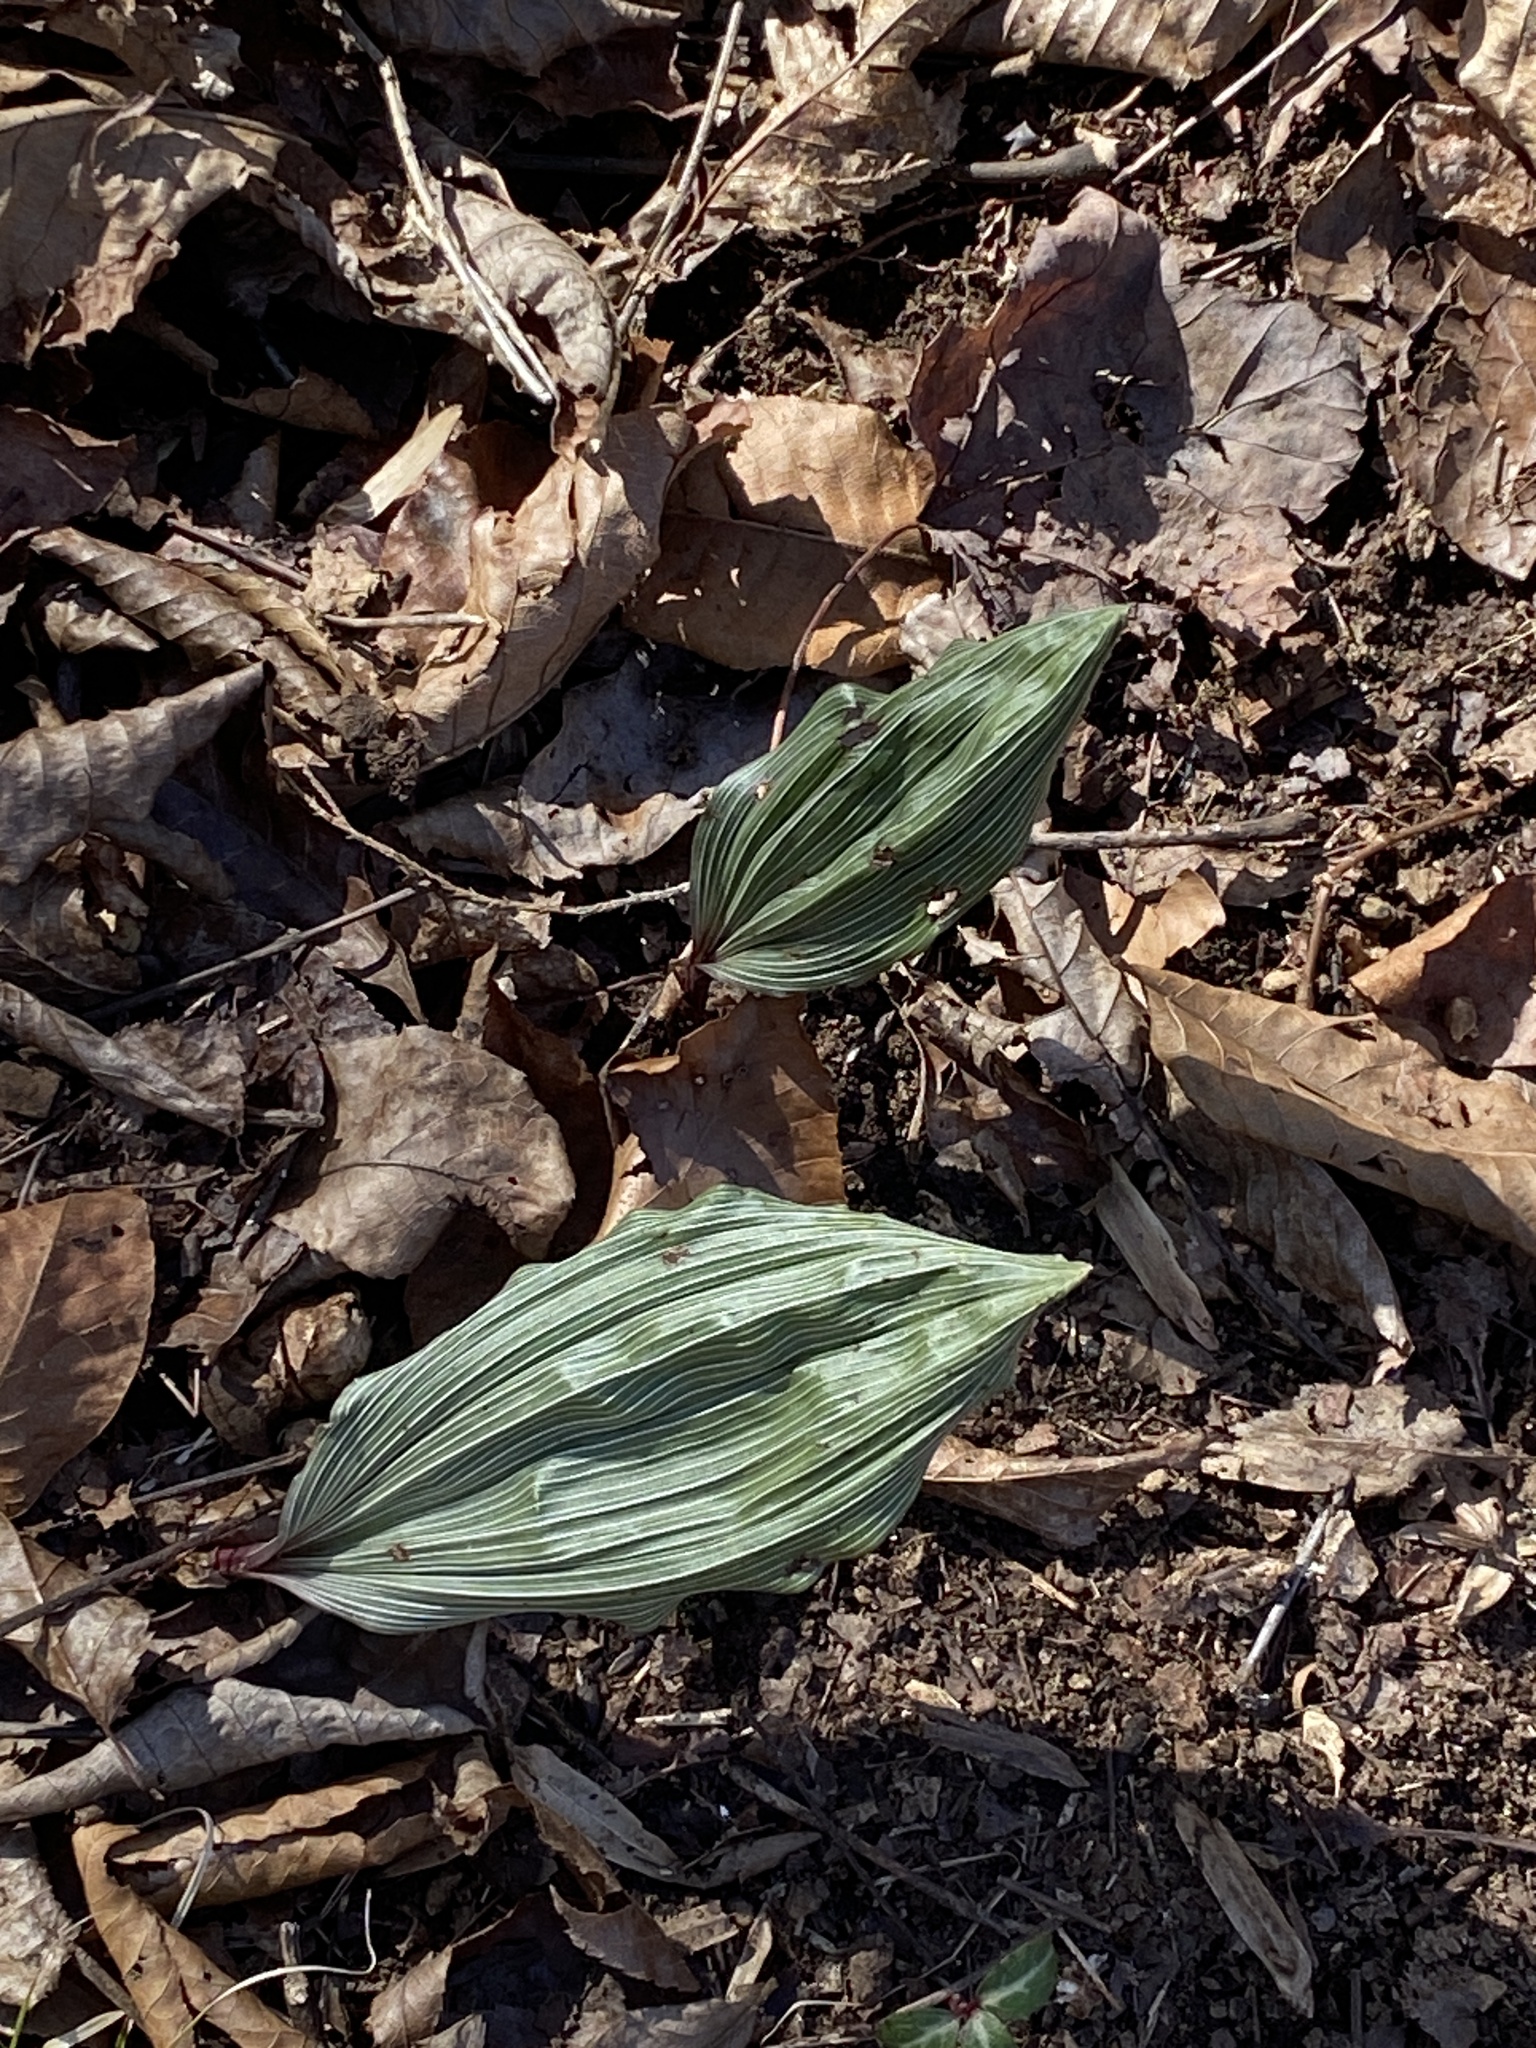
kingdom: Plantae
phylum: Tracheophyta
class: Liliopsida
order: Asparagales
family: Orchidaceae
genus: Aplectrum
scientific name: Aplectrum hyemale
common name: Adam-and-eve
